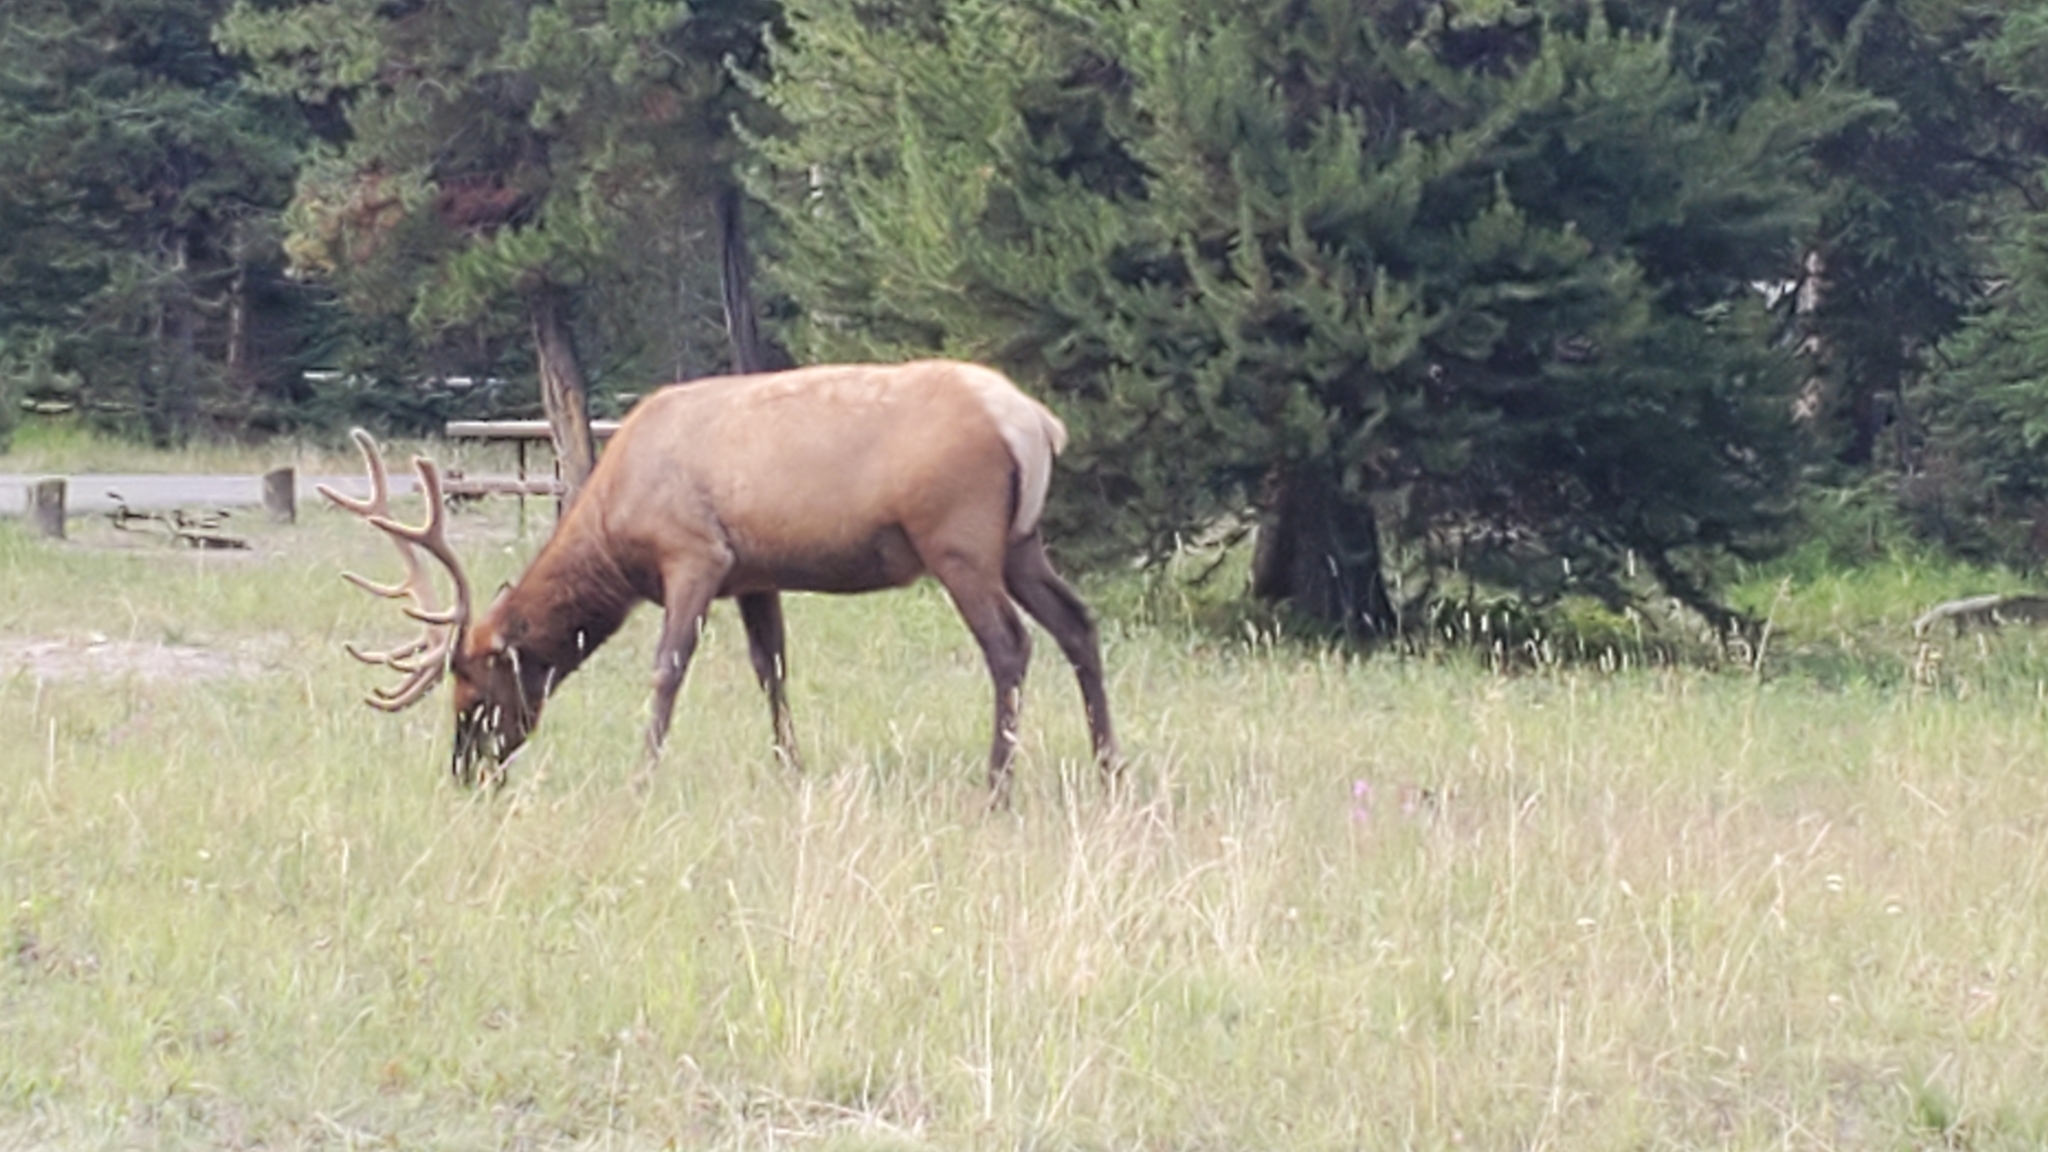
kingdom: Animalia
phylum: Chordata
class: Mammalia
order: Artiodactyla
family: Cervidae
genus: Cervus
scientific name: Cervus elaphus
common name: Red deer
